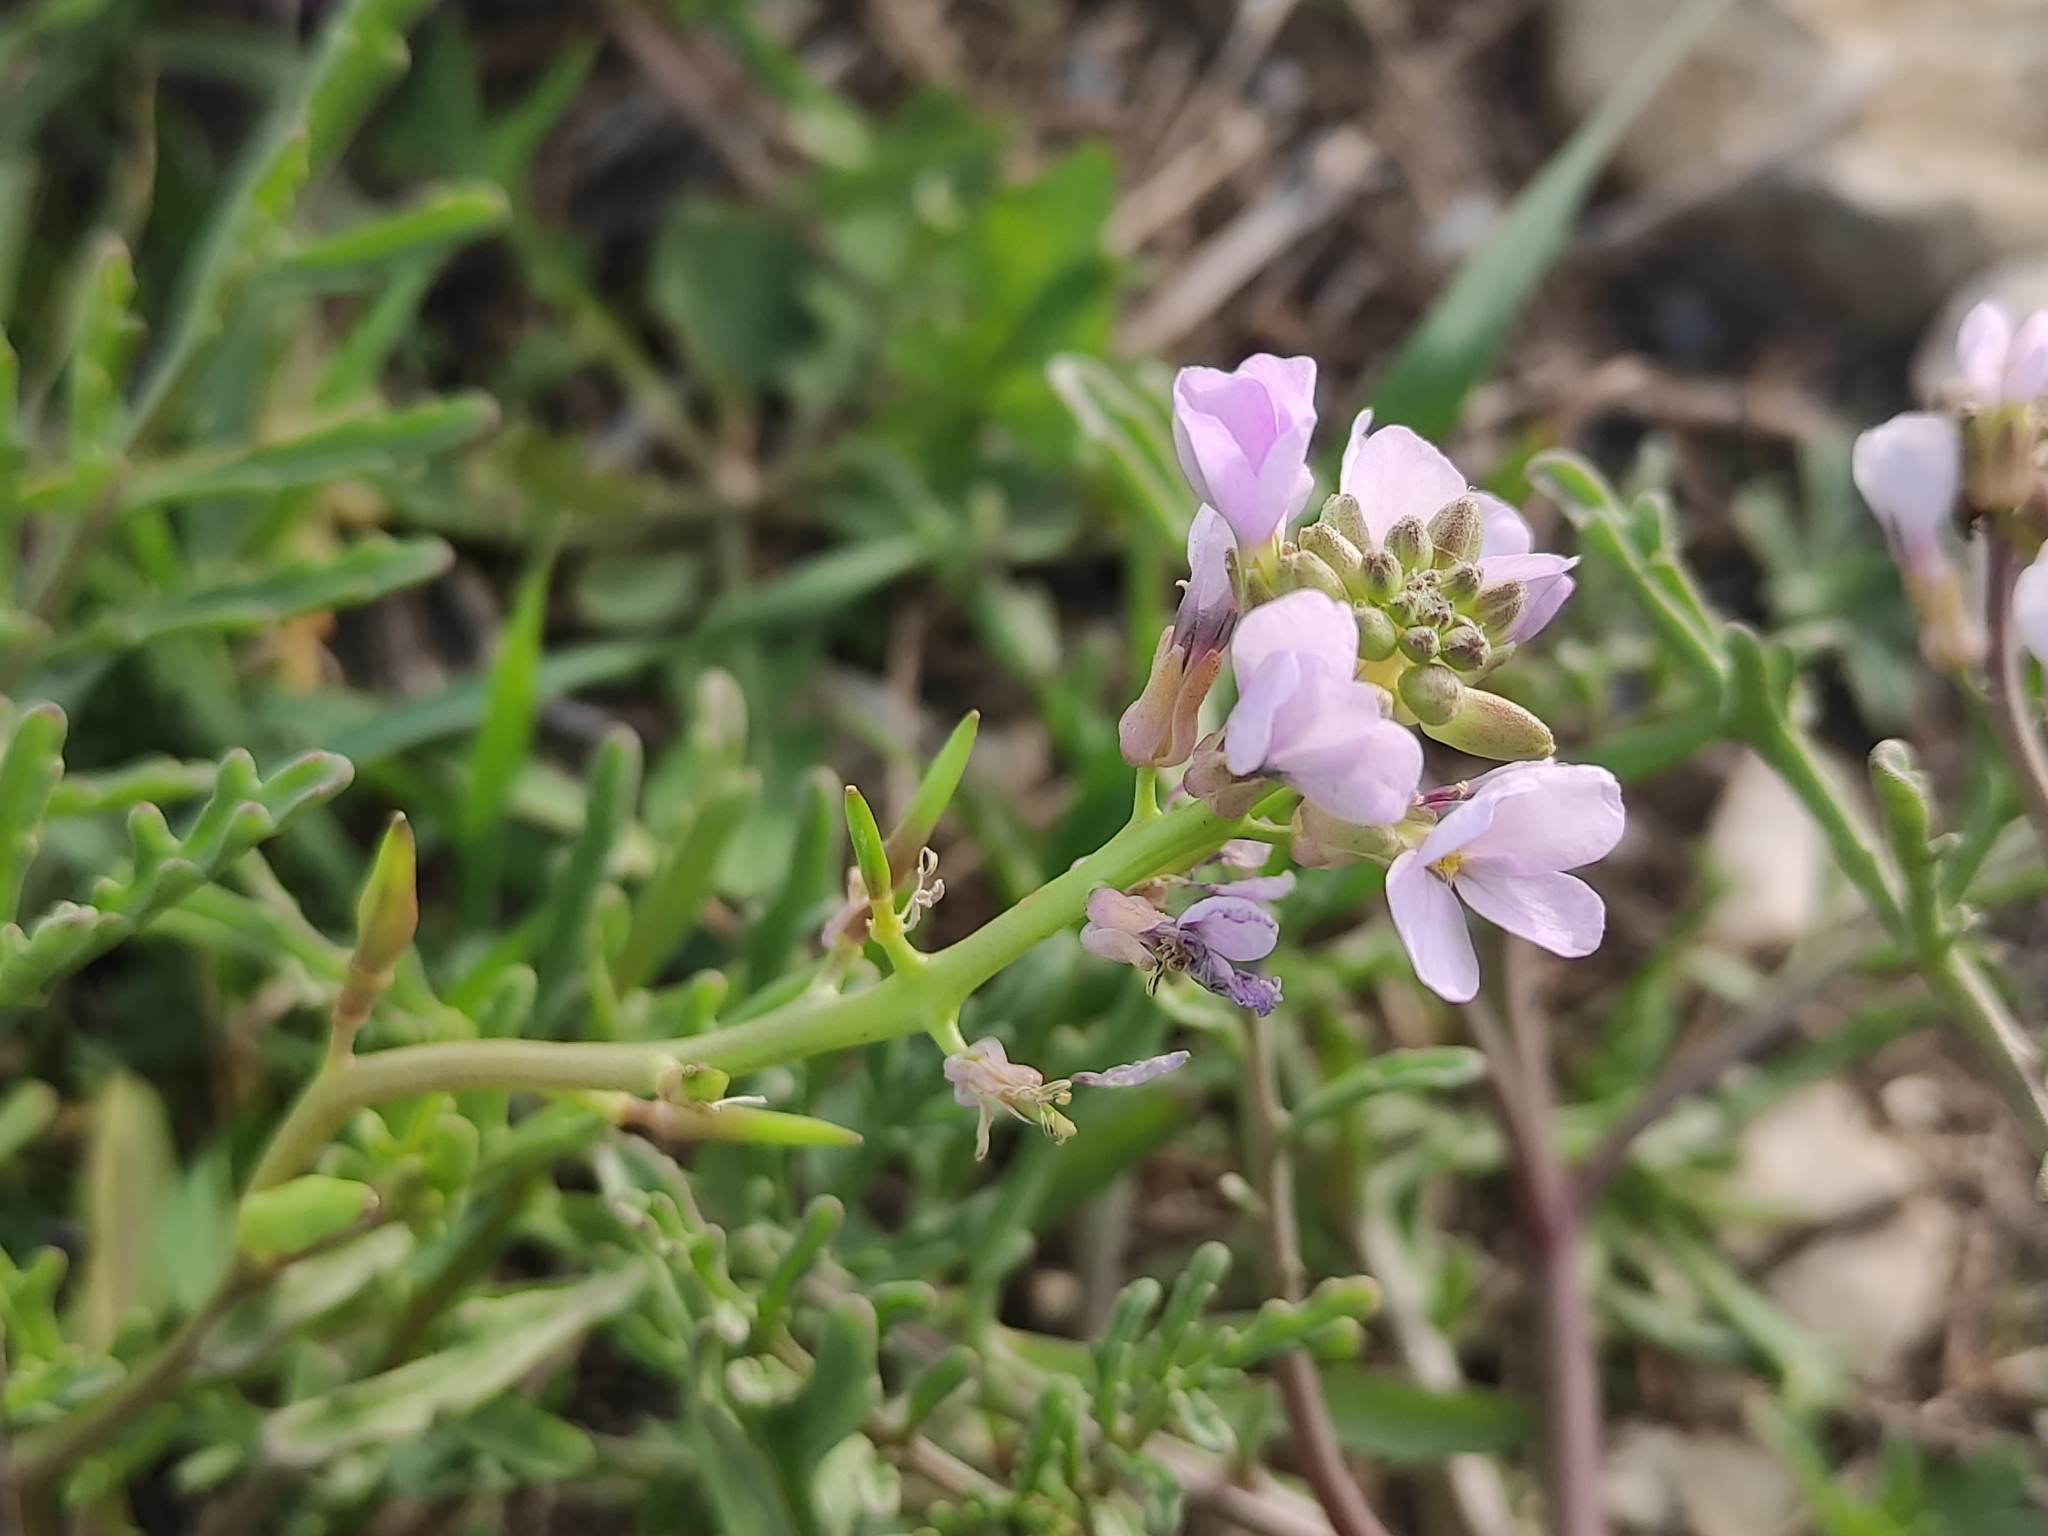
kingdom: Plantae
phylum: Tracheophyta
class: Magnoliopsida
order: Brassicales
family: Brassicaceae
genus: Cakile
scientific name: Cakile maritima
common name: Sea rocket
